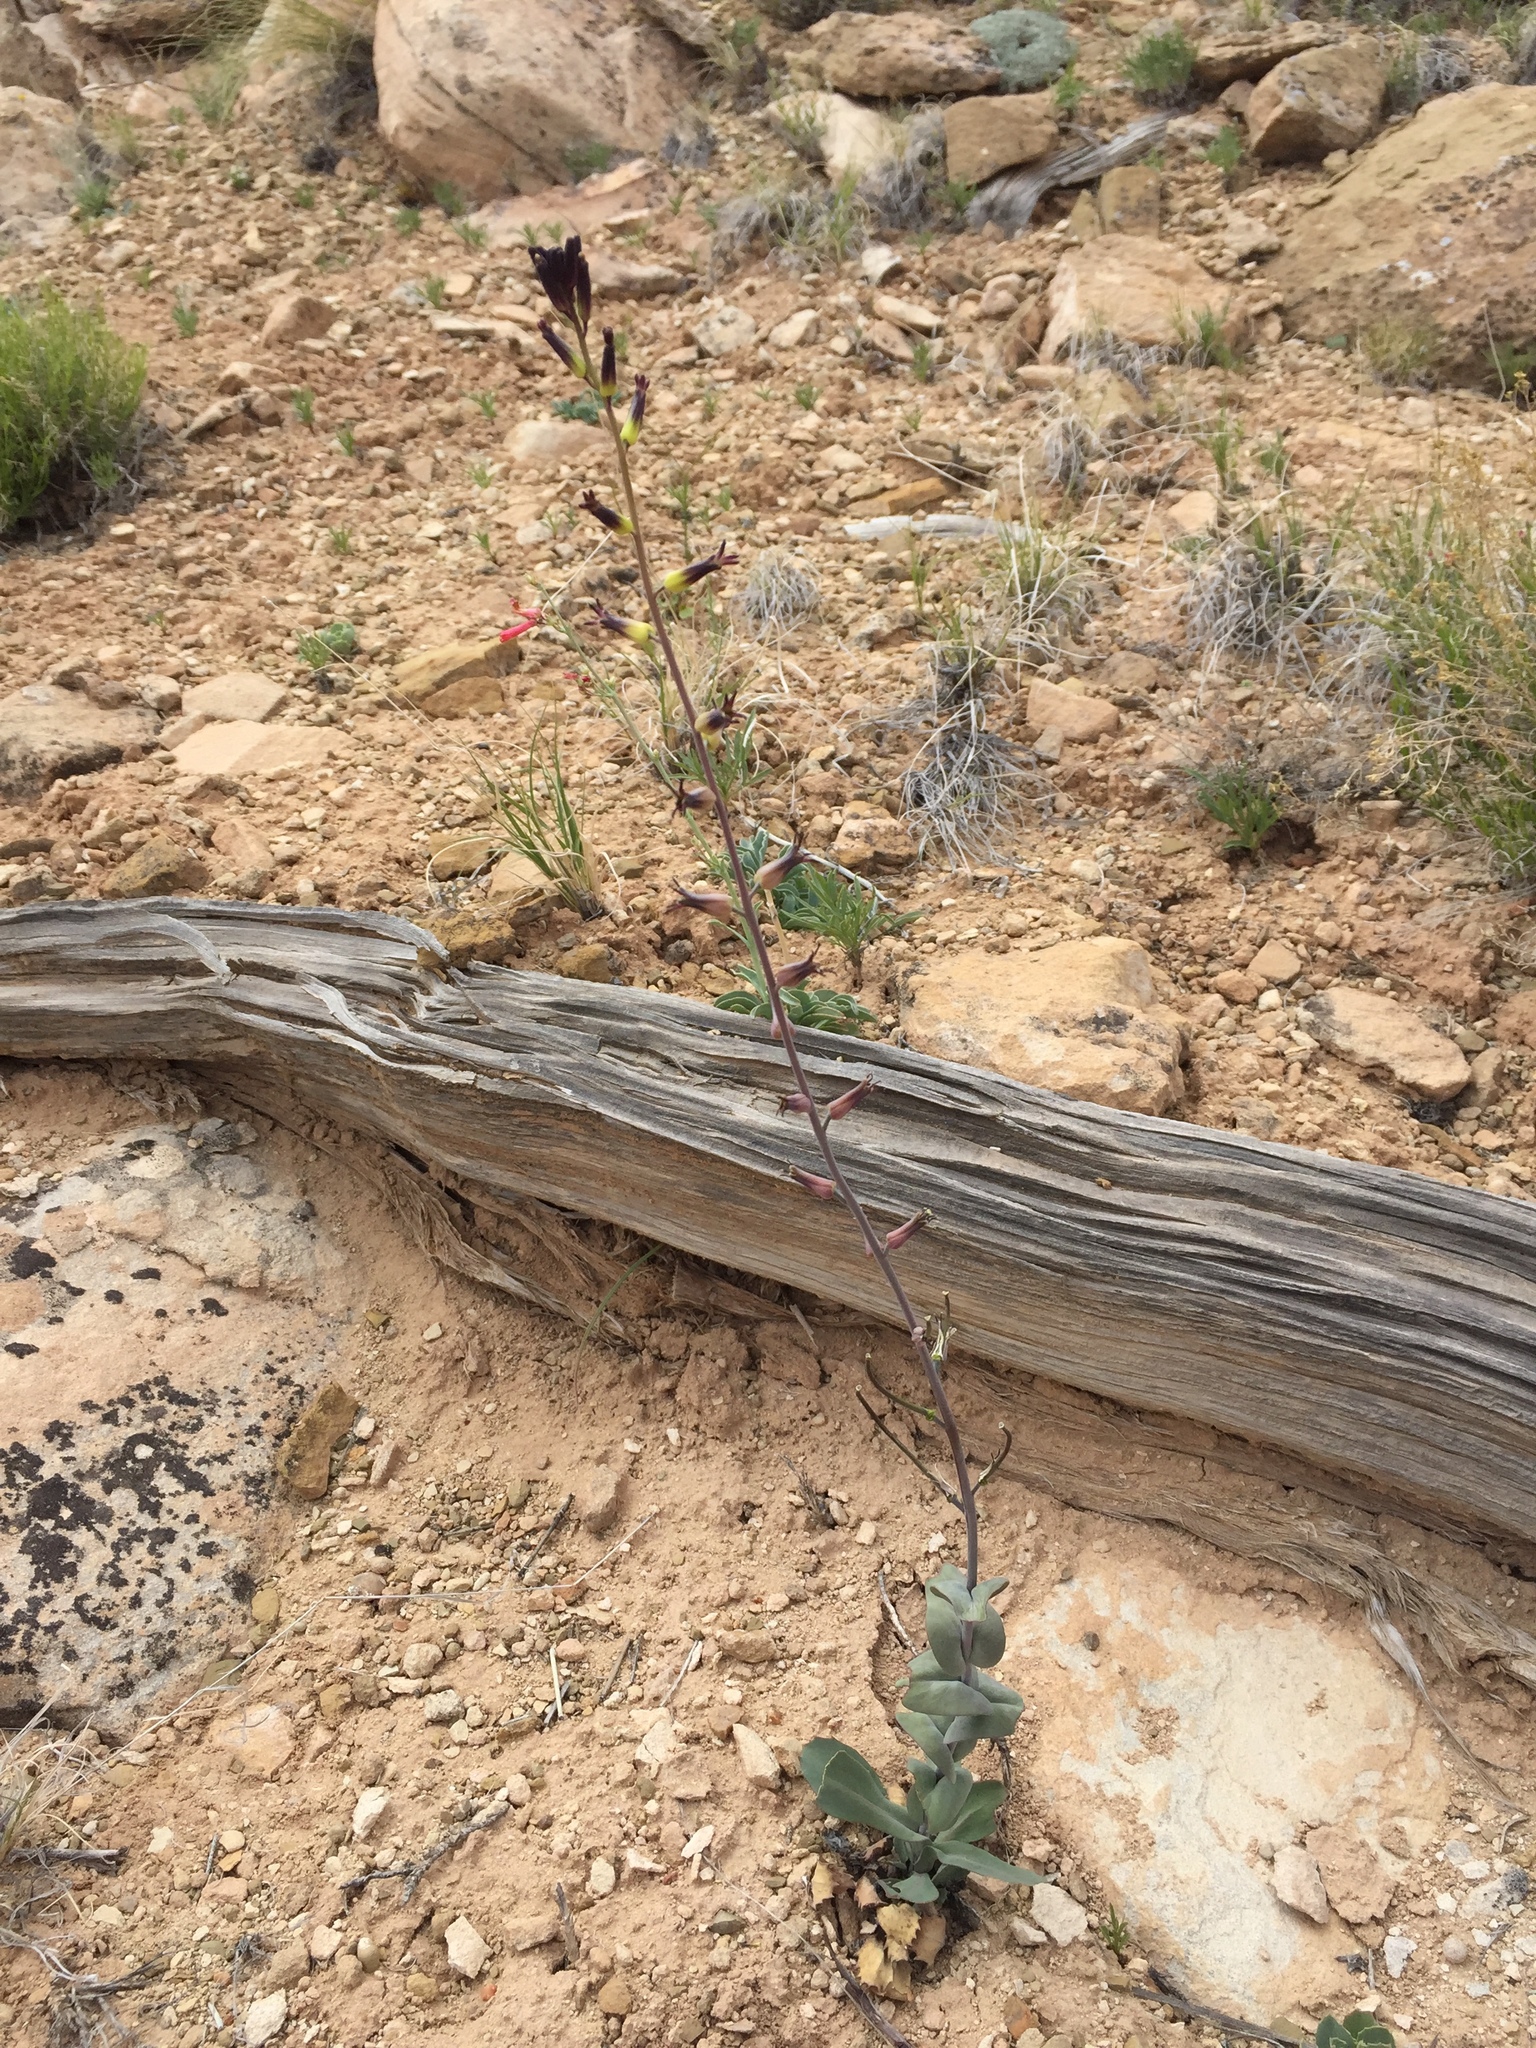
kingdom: Plantae
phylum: Tracheophyta
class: Magnoliopsida
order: Brassicales
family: Brassicaceae
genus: Streptanthus
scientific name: Streptanthus cordatus
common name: Heart-leaf jewel-flower
